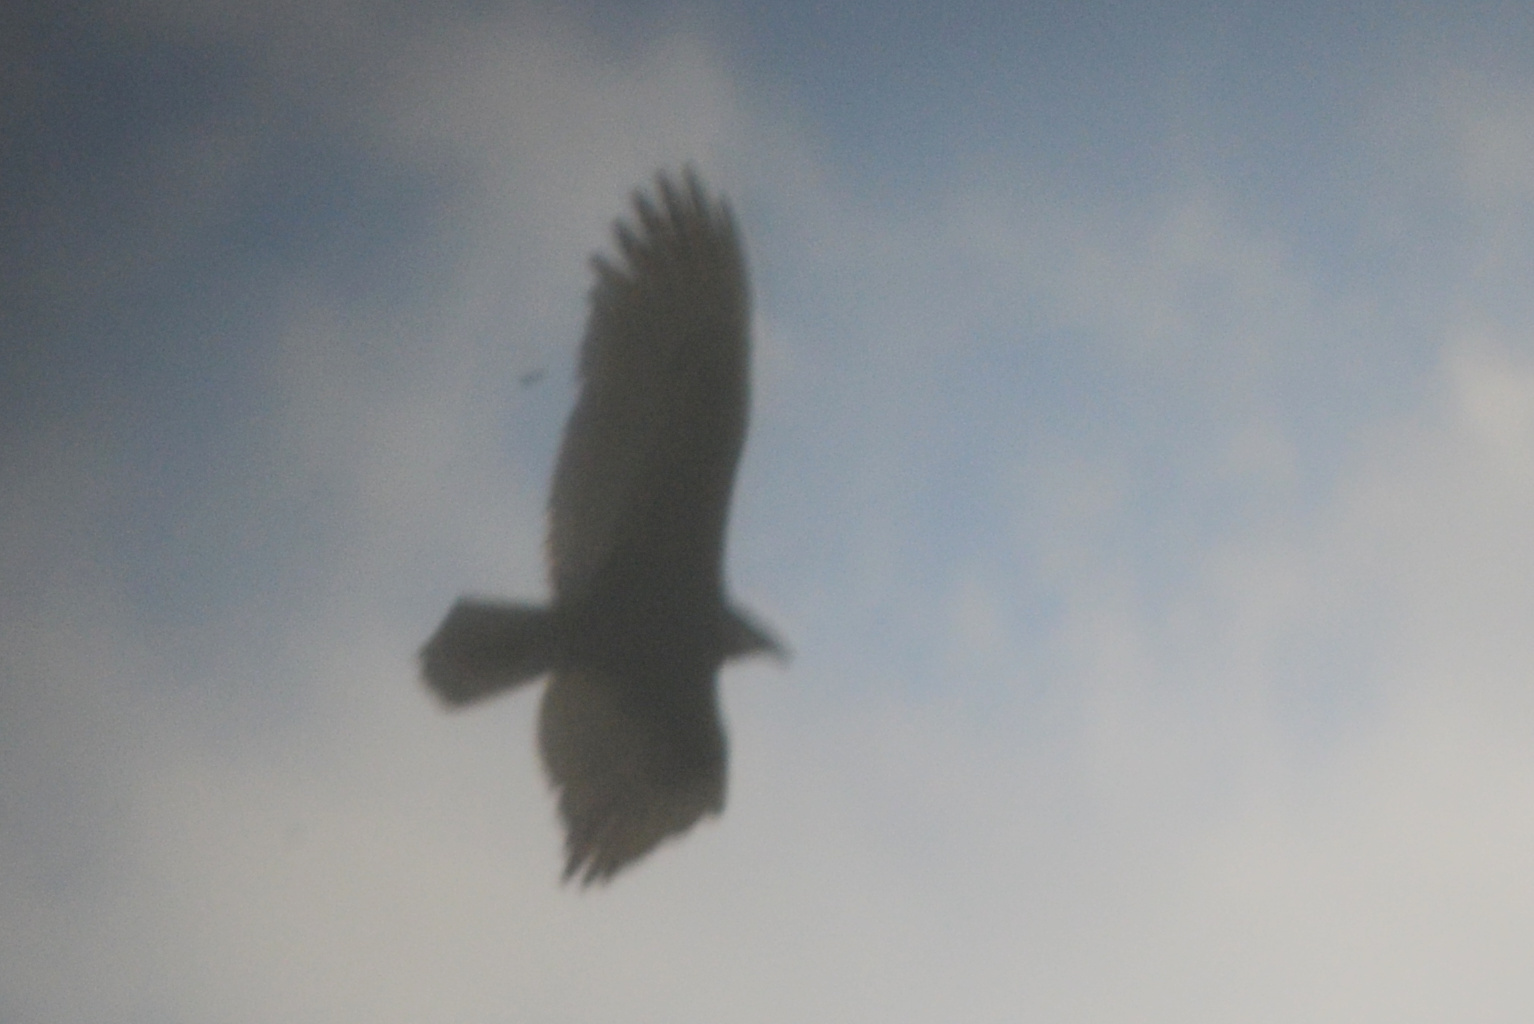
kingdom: Animalia
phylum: Chordata
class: Aves
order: Accipitriformes
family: Cathartidae
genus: Cathartes
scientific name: Cathartes aura
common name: Turkey vulture
